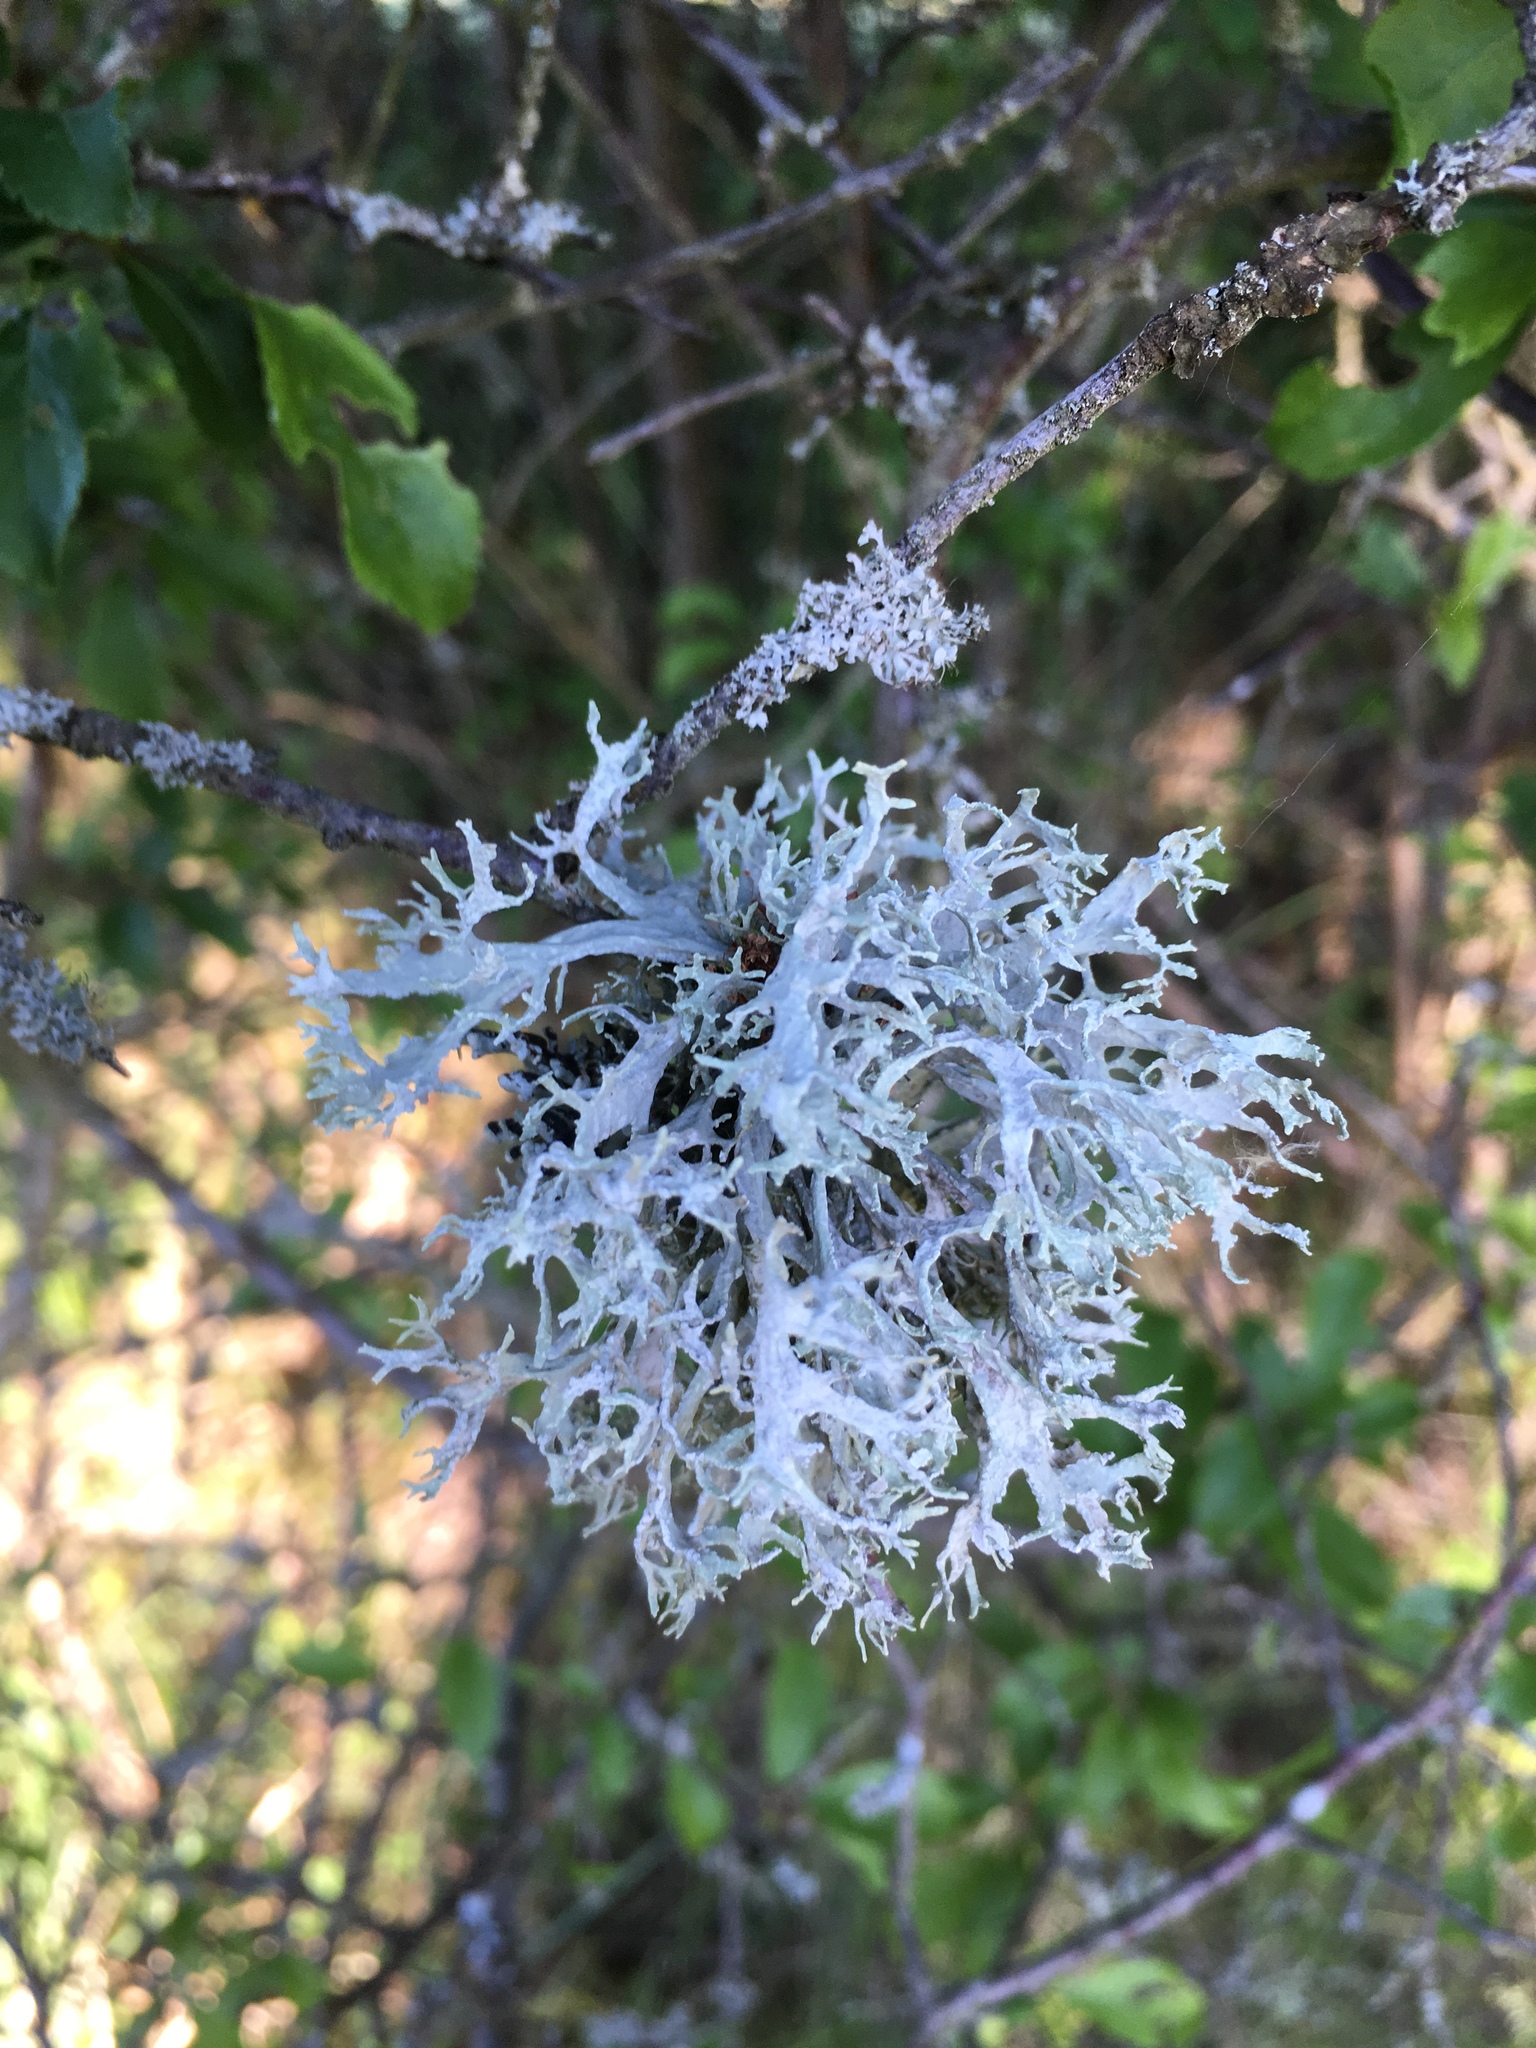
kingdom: Fungi
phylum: Ascomycota
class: Lecanoromycetes
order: Lecanorales
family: Parmeliaceae
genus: Evernia
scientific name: Evernia prunastri
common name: Oak moss
